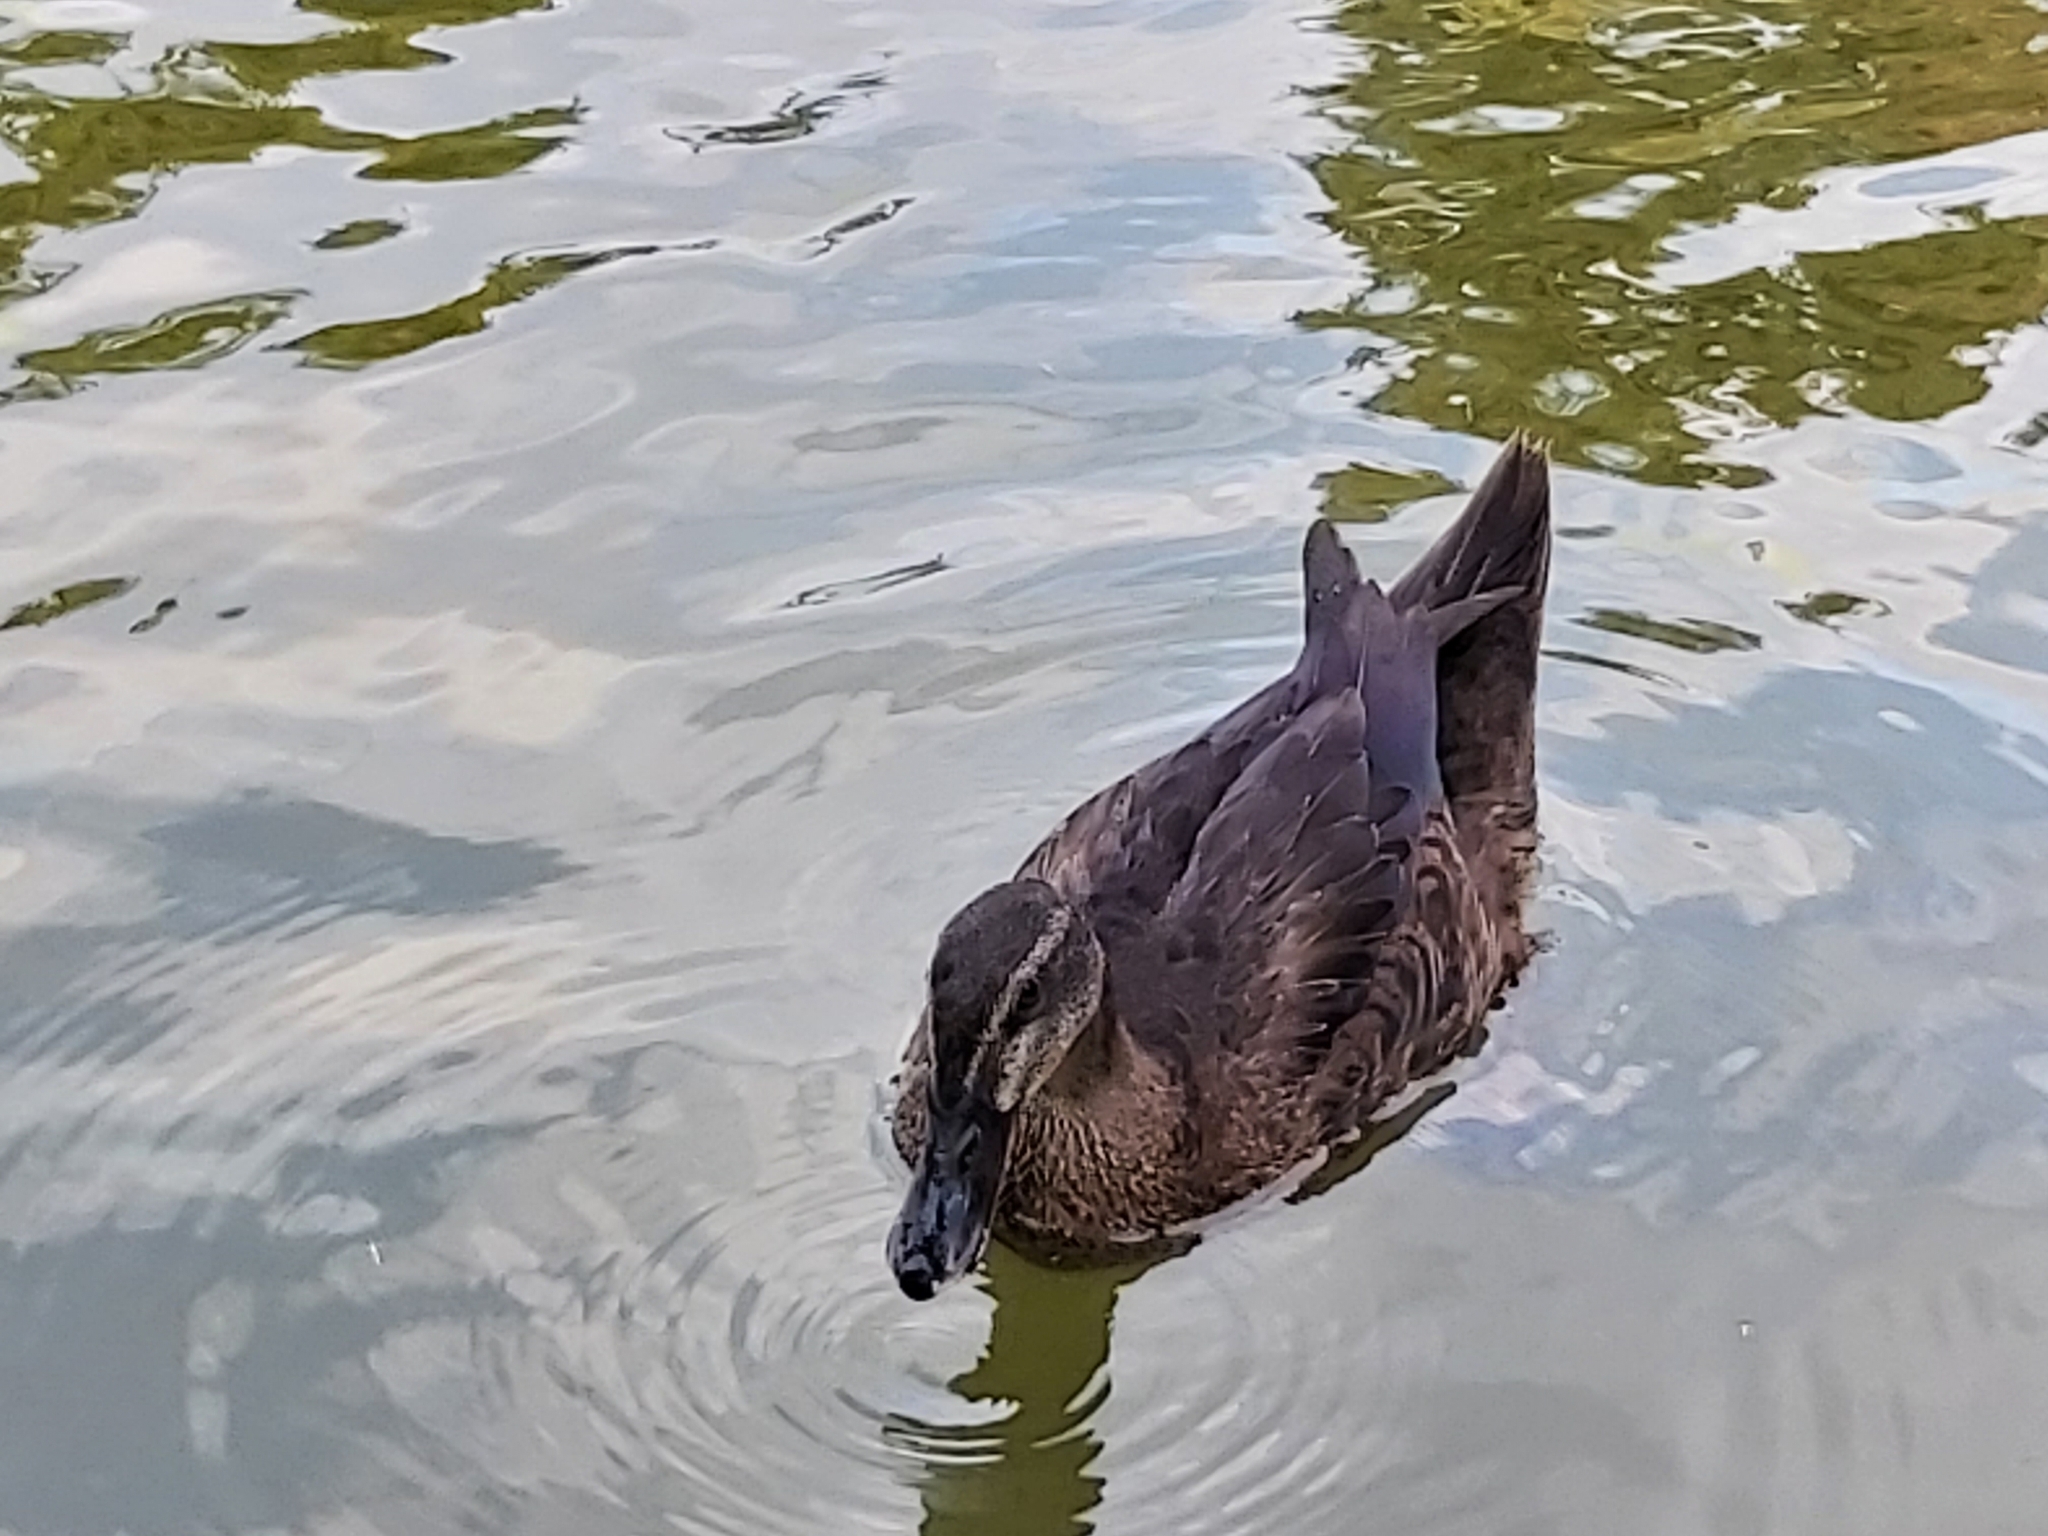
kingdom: Animalia
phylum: Chordata
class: Aves
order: Anseriformes
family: Anatidae
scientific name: Anatidae
